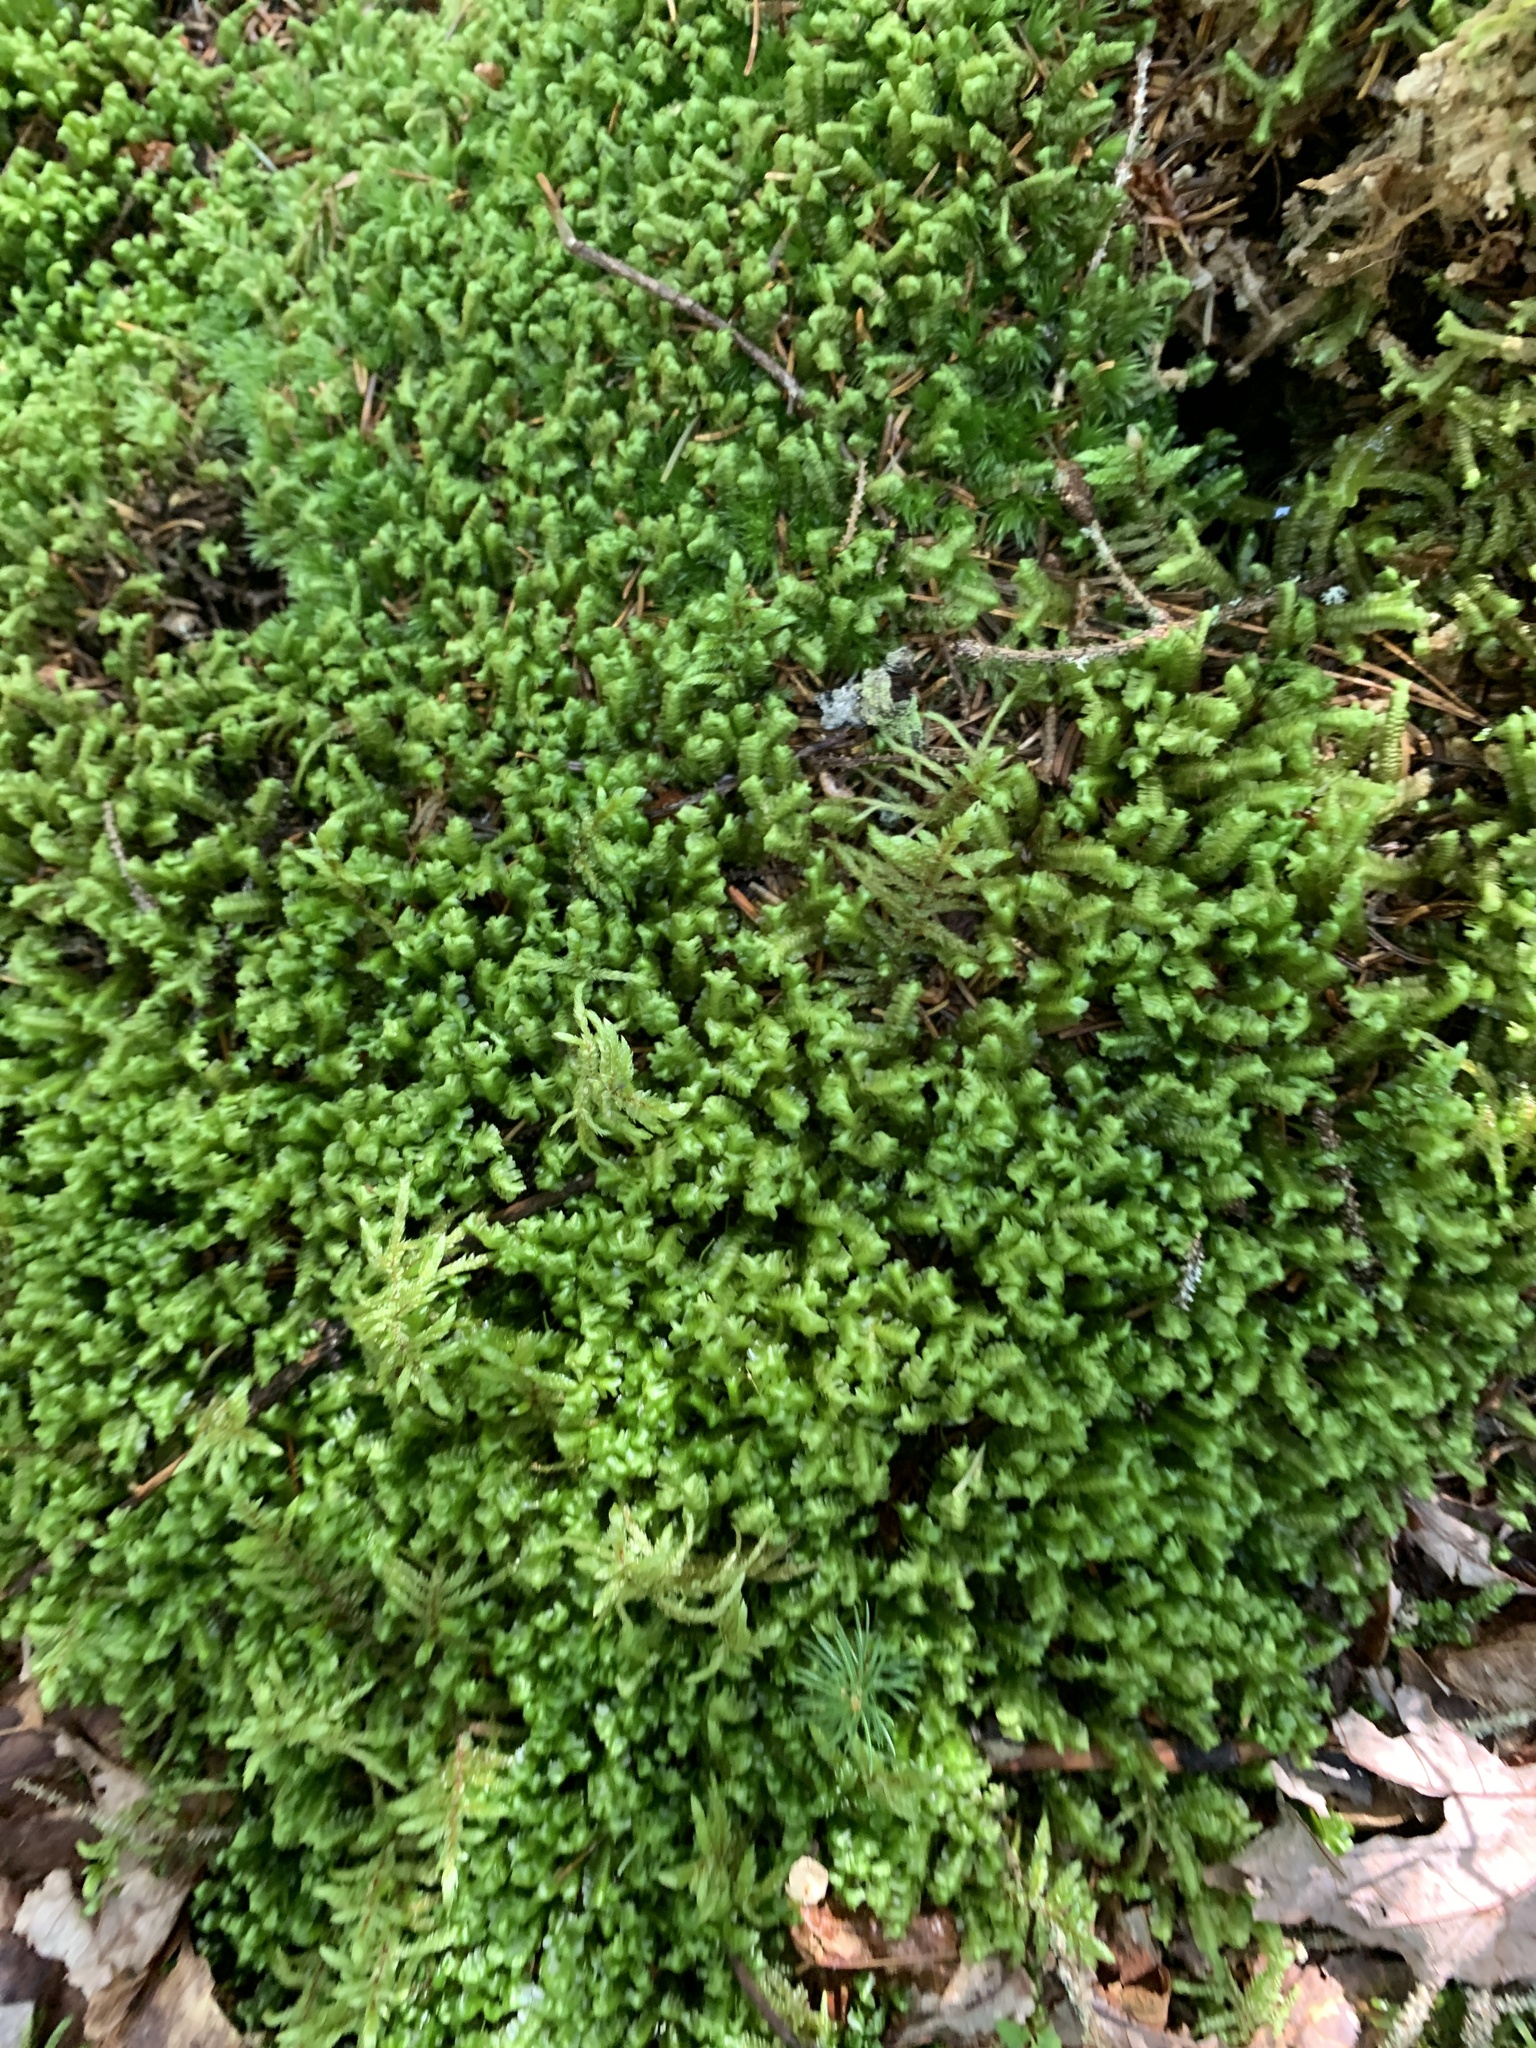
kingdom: Plantae
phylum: Marchantiophyta
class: Jungermanniopsida
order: Jungermanniales
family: Lepidoziaceae
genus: Bazzania
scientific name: Bazzania trilobata
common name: Three-lobed whipwort
